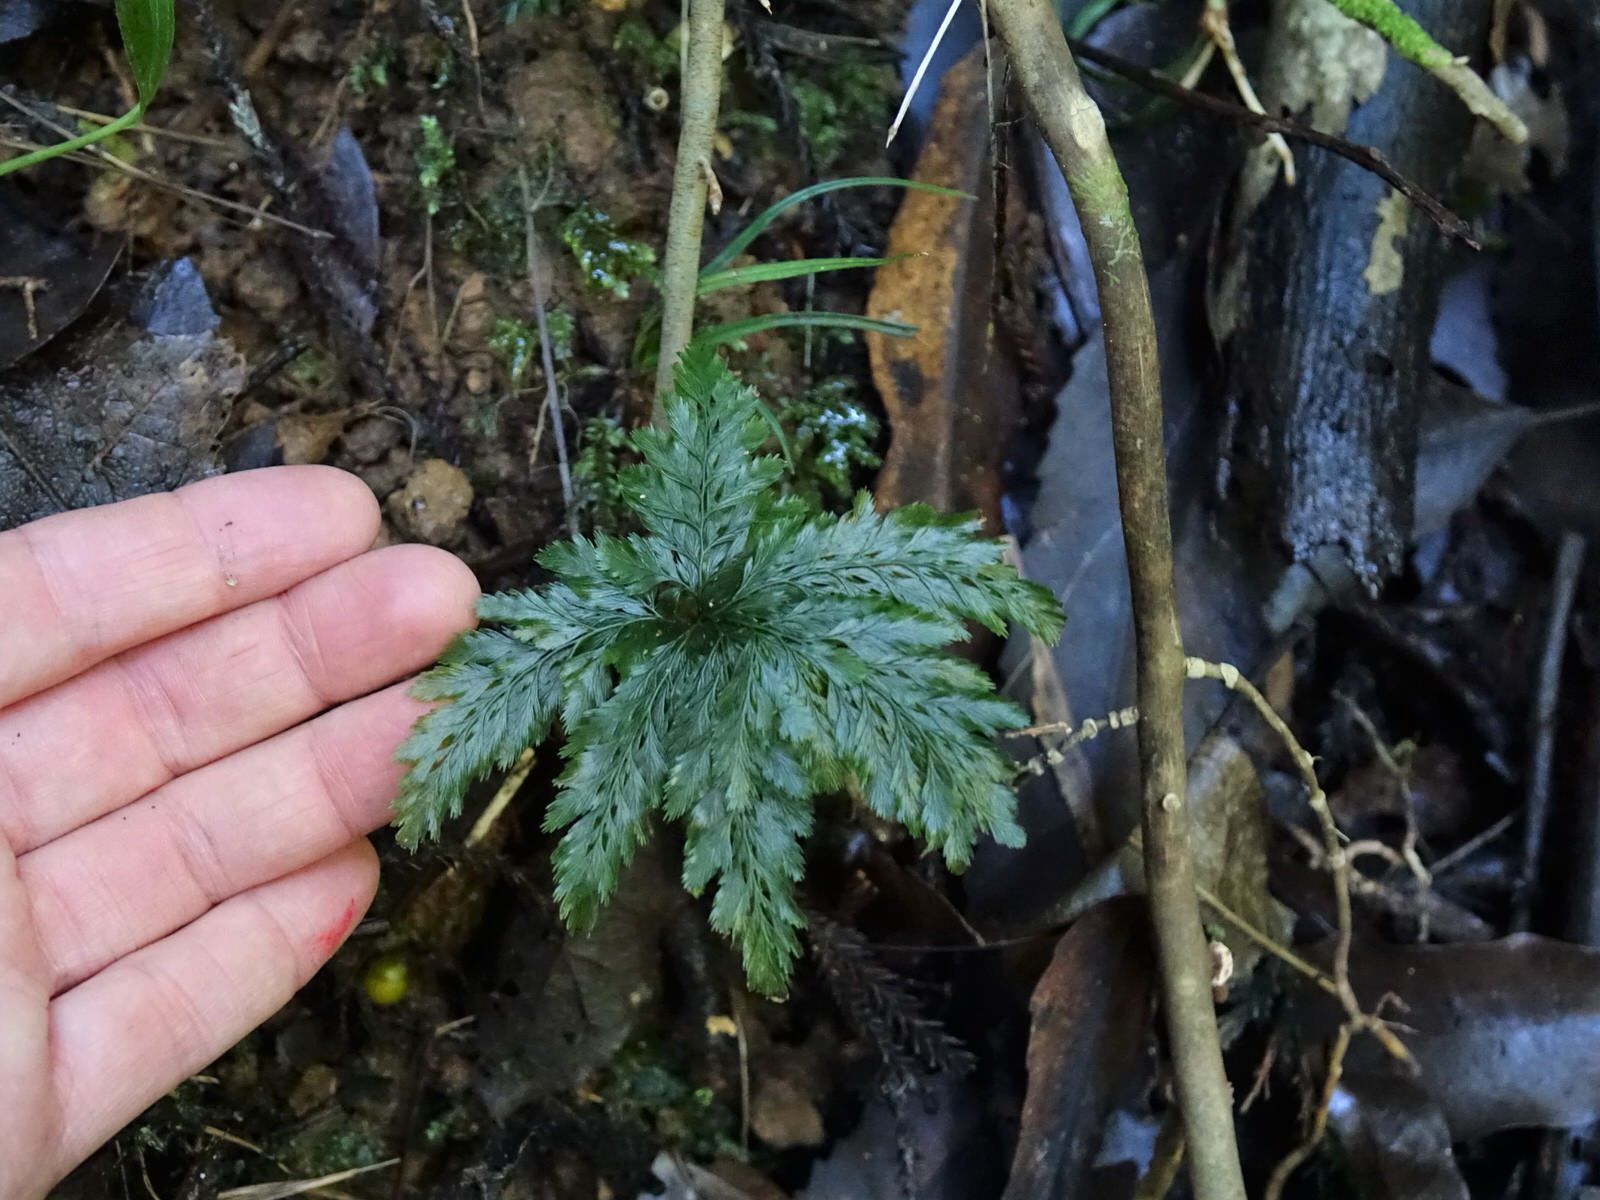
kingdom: Plantae
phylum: Tracheophyta
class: Polypodiopsida
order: Hymenophyllales
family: Hymenophyllaceae
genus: Abrodictyum
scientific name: Abrodictyum elongatum
